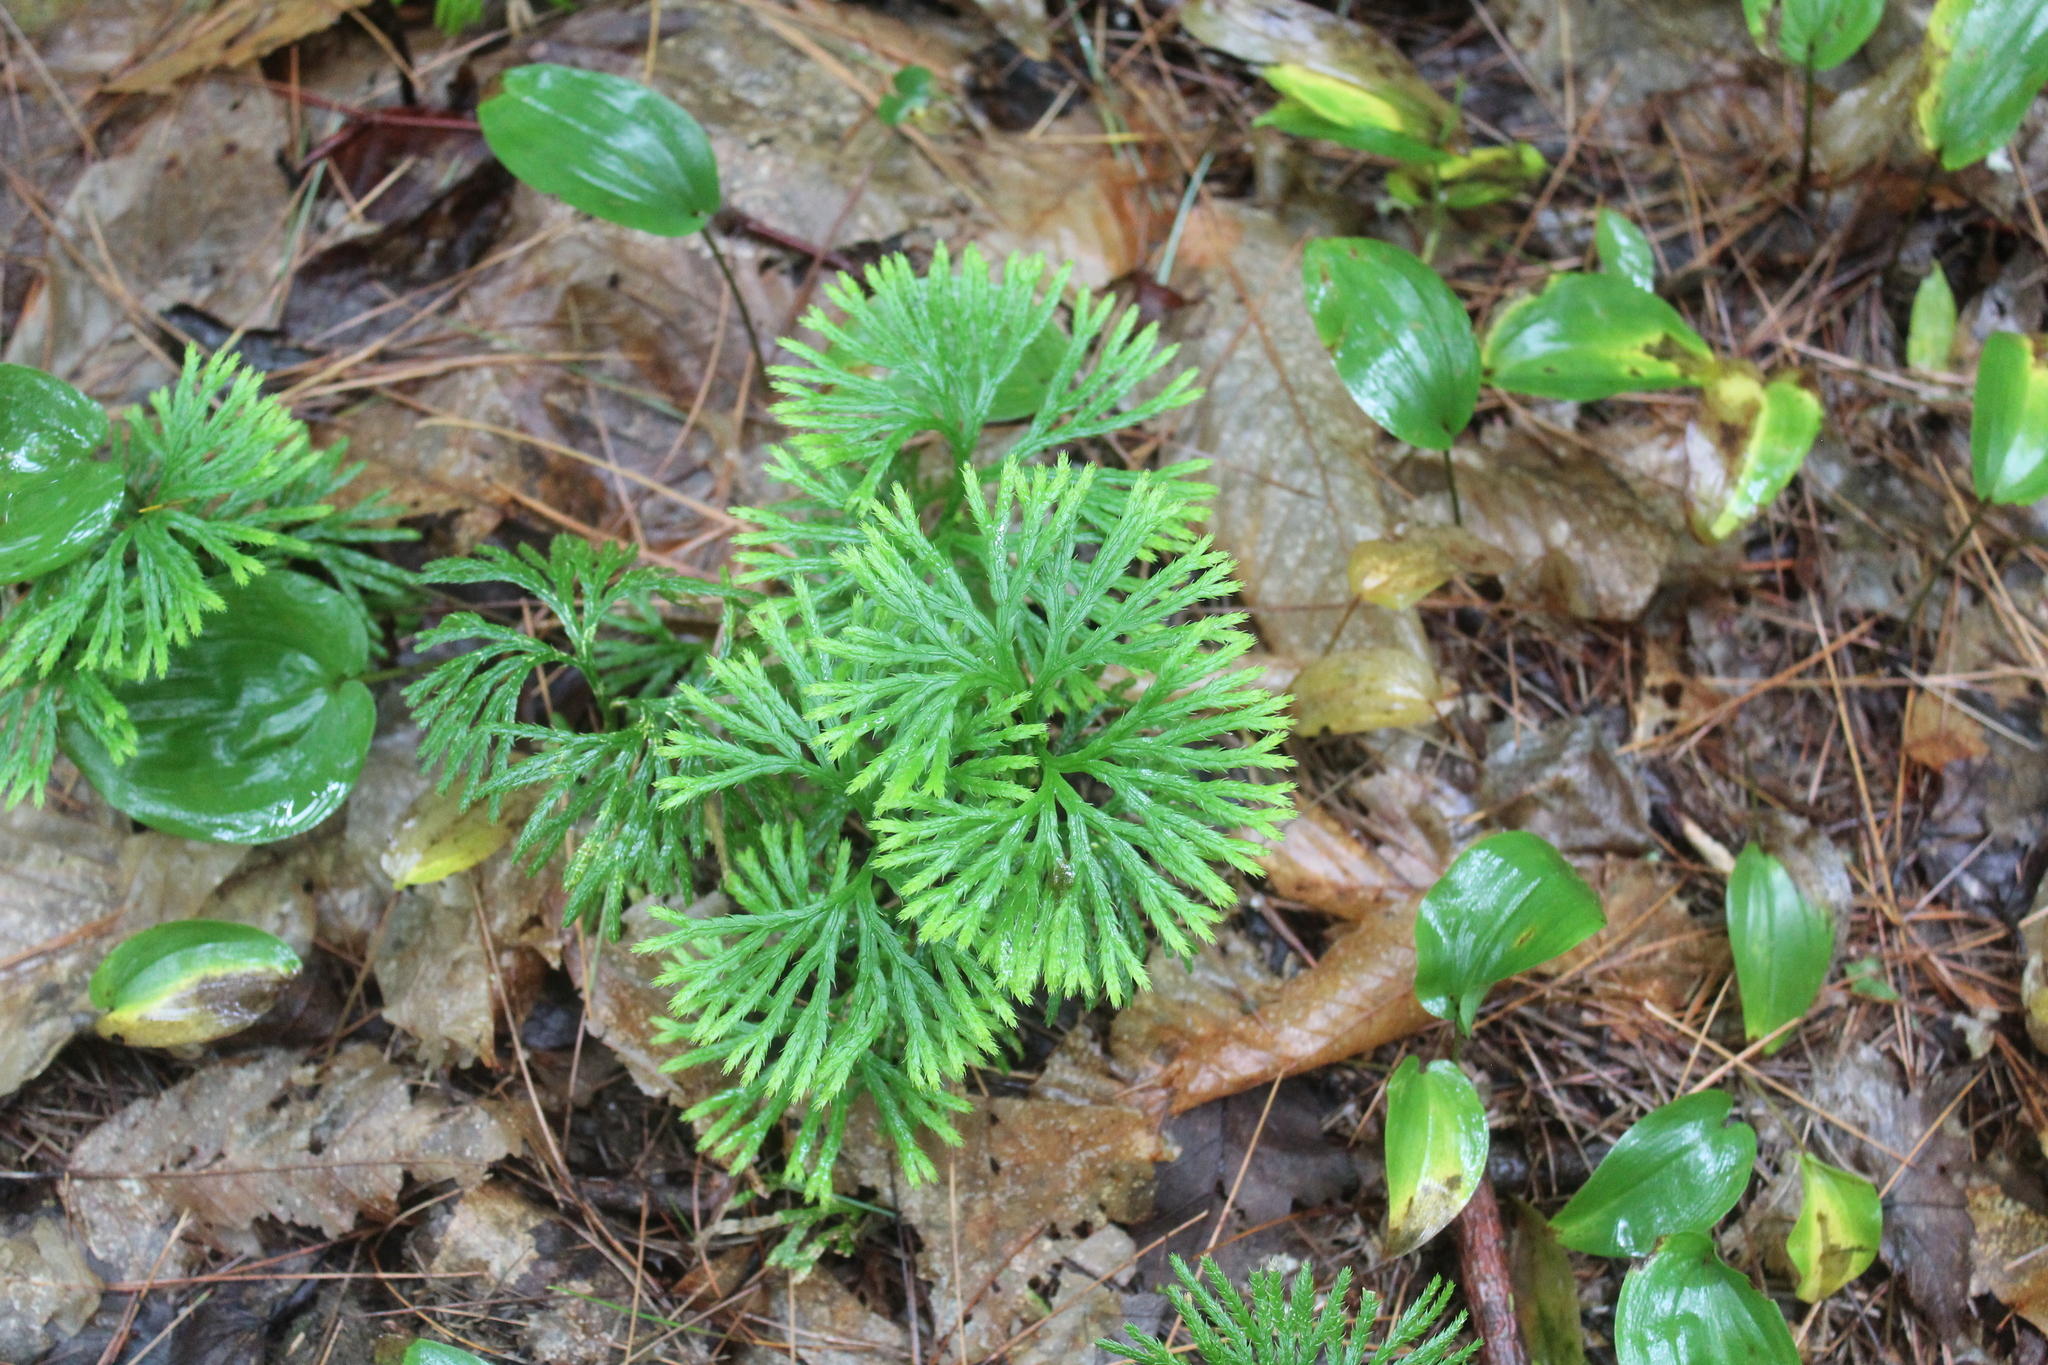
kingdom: Plantae
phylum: Tracheophyta
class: Lycopodiopsida
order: Lycopodiales
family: Lycopodiaceae
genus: Diphasiastrum
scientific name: Diphasiastrum digitatum
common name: Southern running-pine
